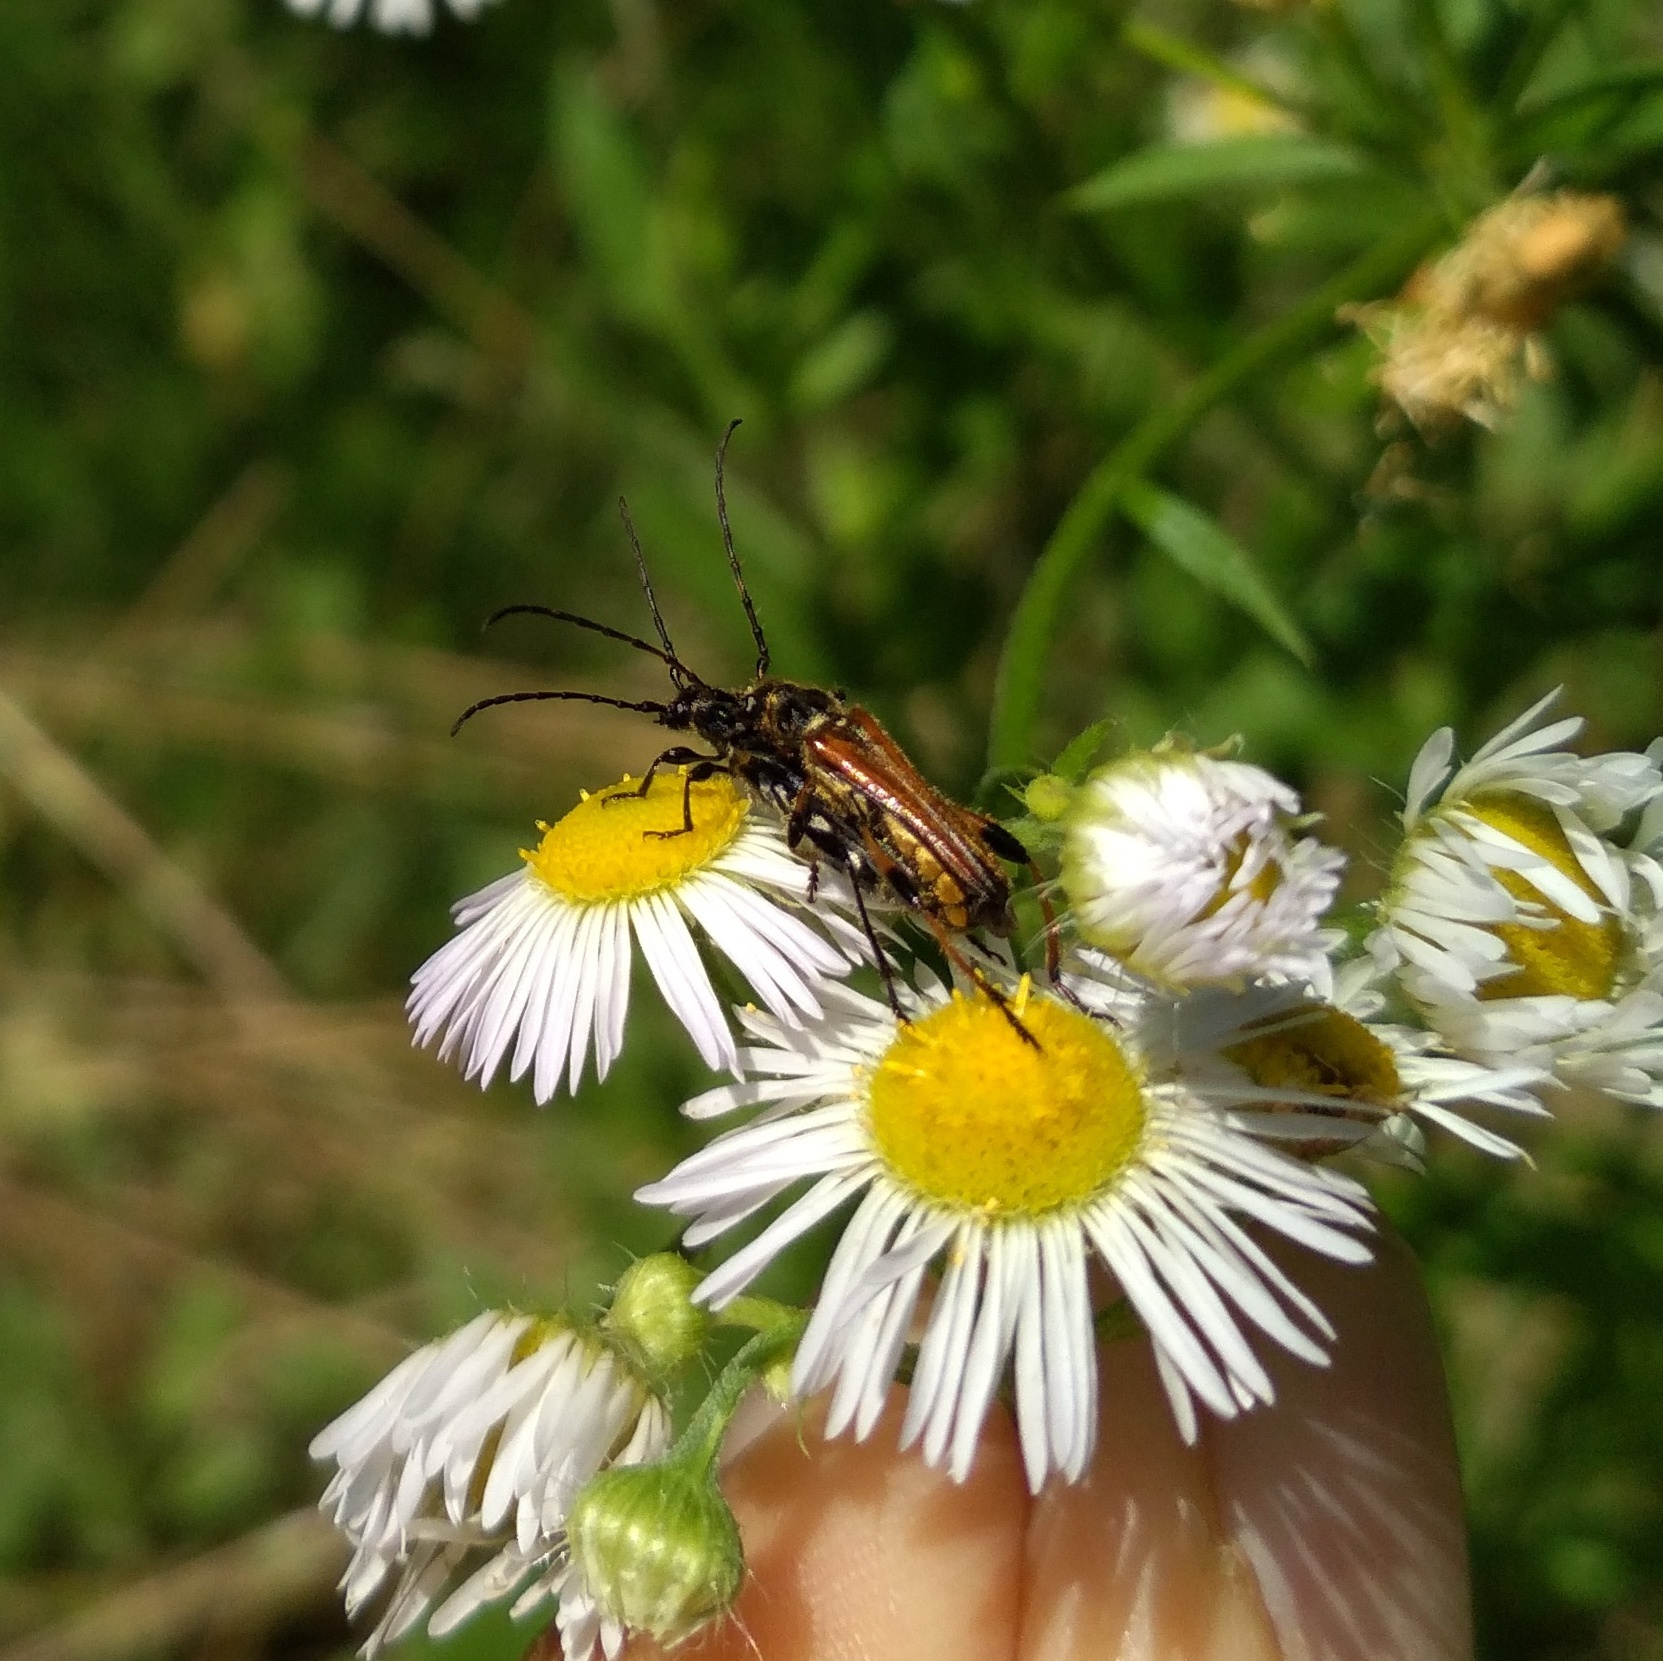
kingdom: Animalia
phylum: Arthropoda
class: Insecta
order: Coleoptera
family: Cerambycidae
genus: Stenopterus
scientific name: Stenopterus ater
